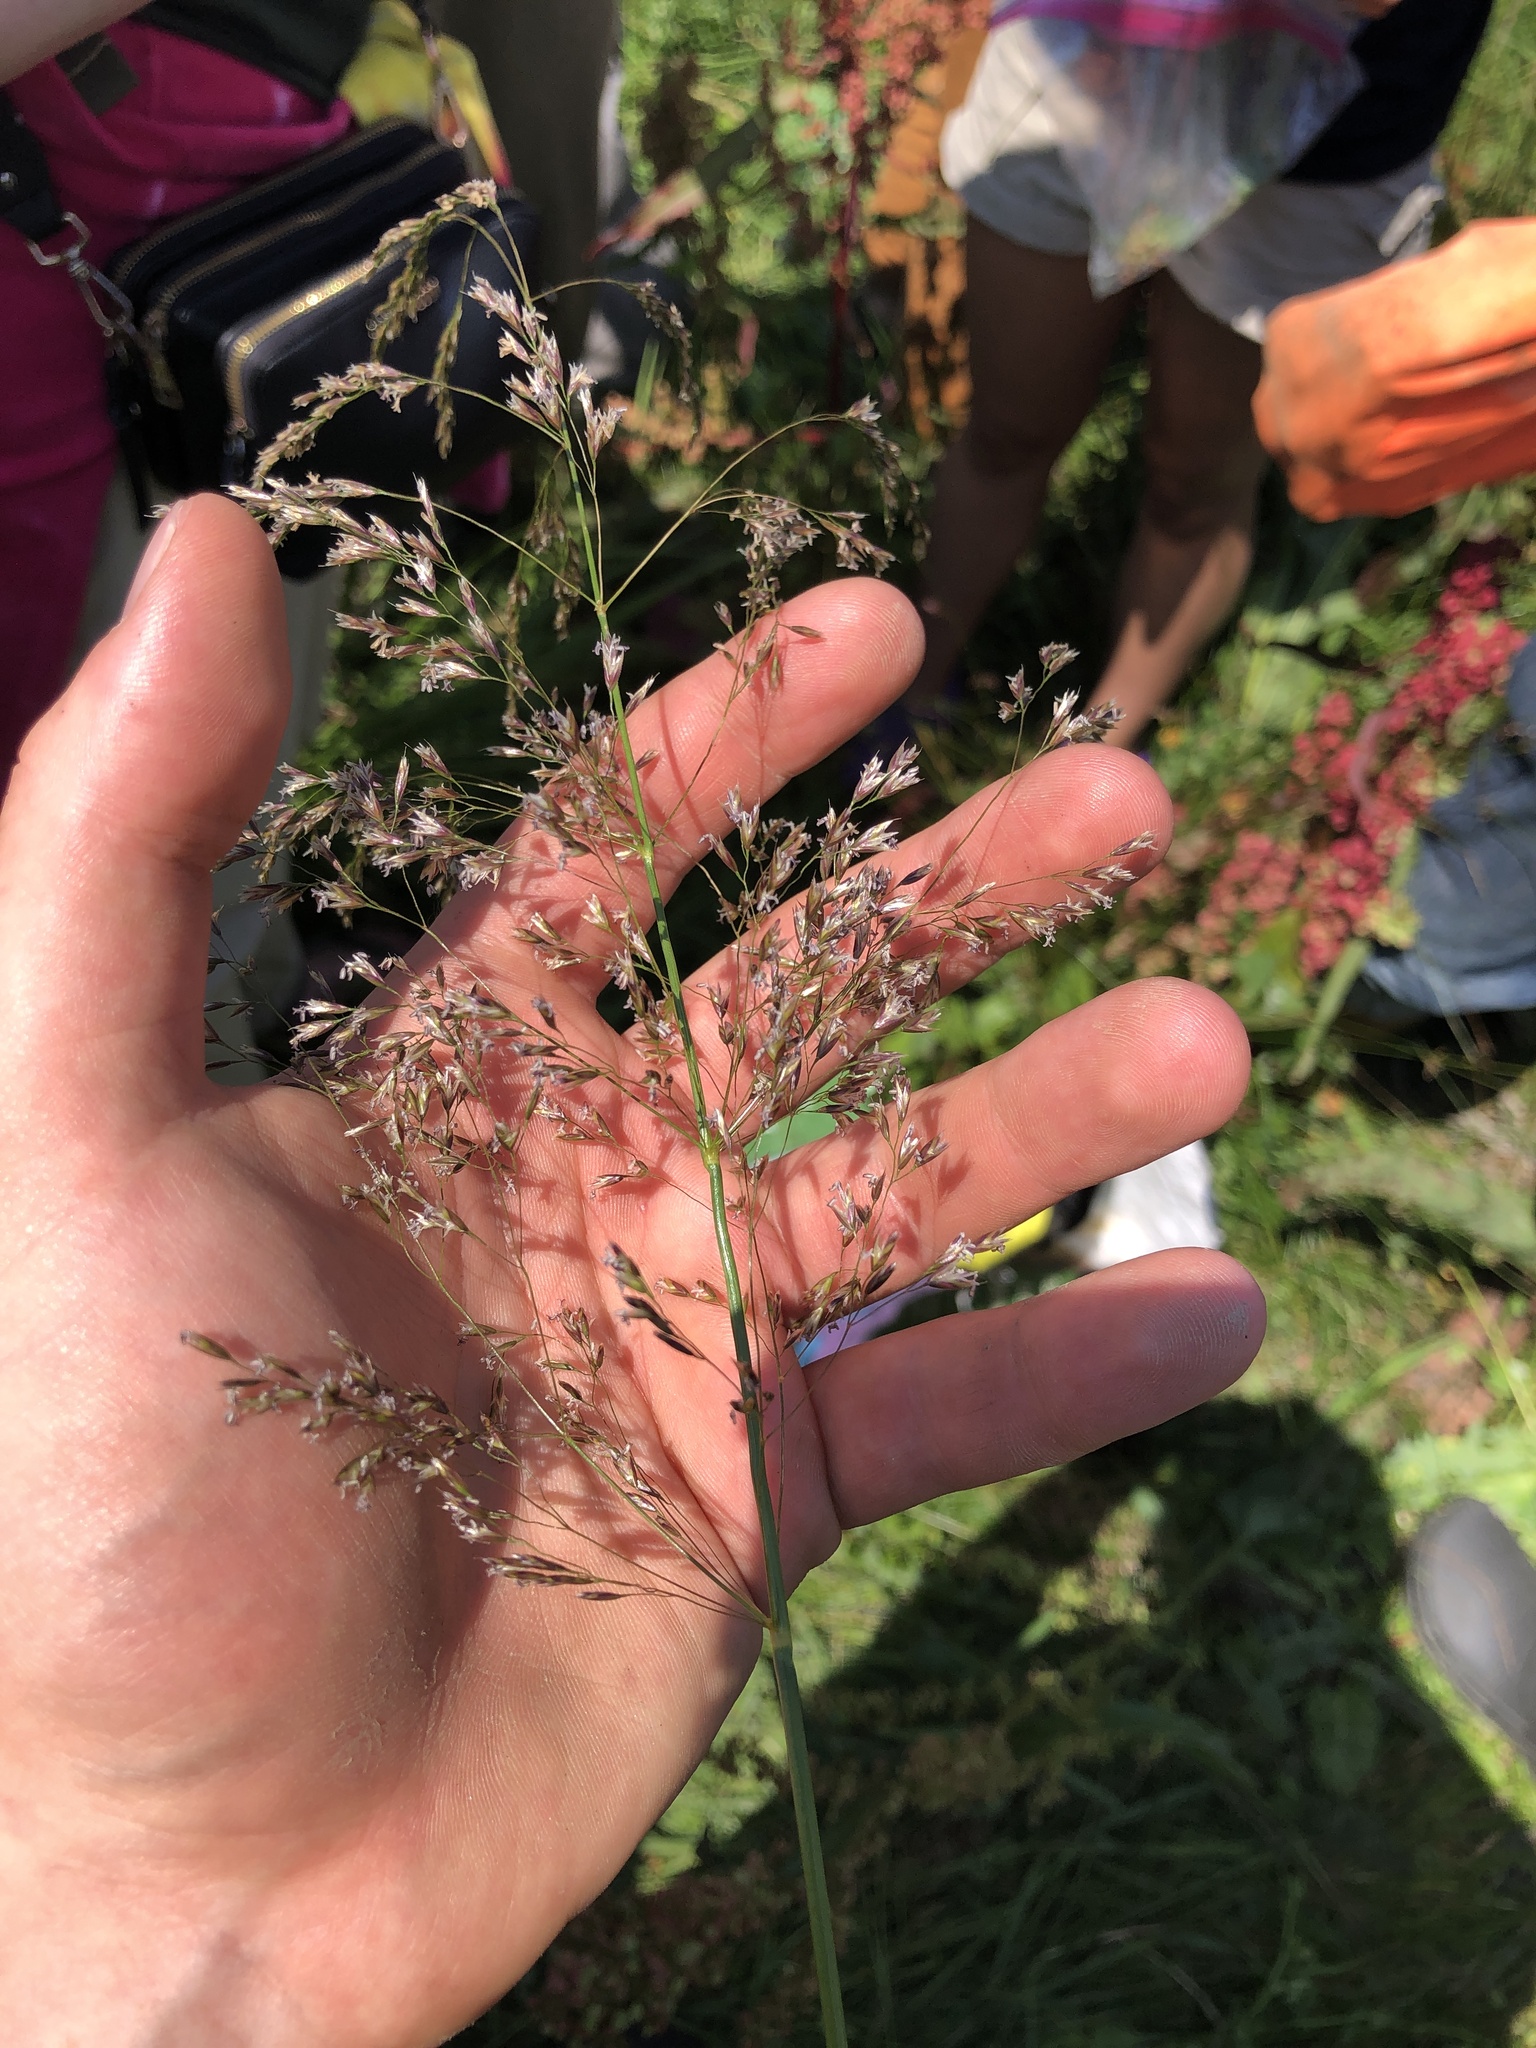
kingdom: Plantae
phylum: Tracheophyta
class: Liliopsida
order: Poales
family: Poaceae
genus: Deschampsia
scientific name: Deschampsia cespitosa
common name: Tufted hair-grass
